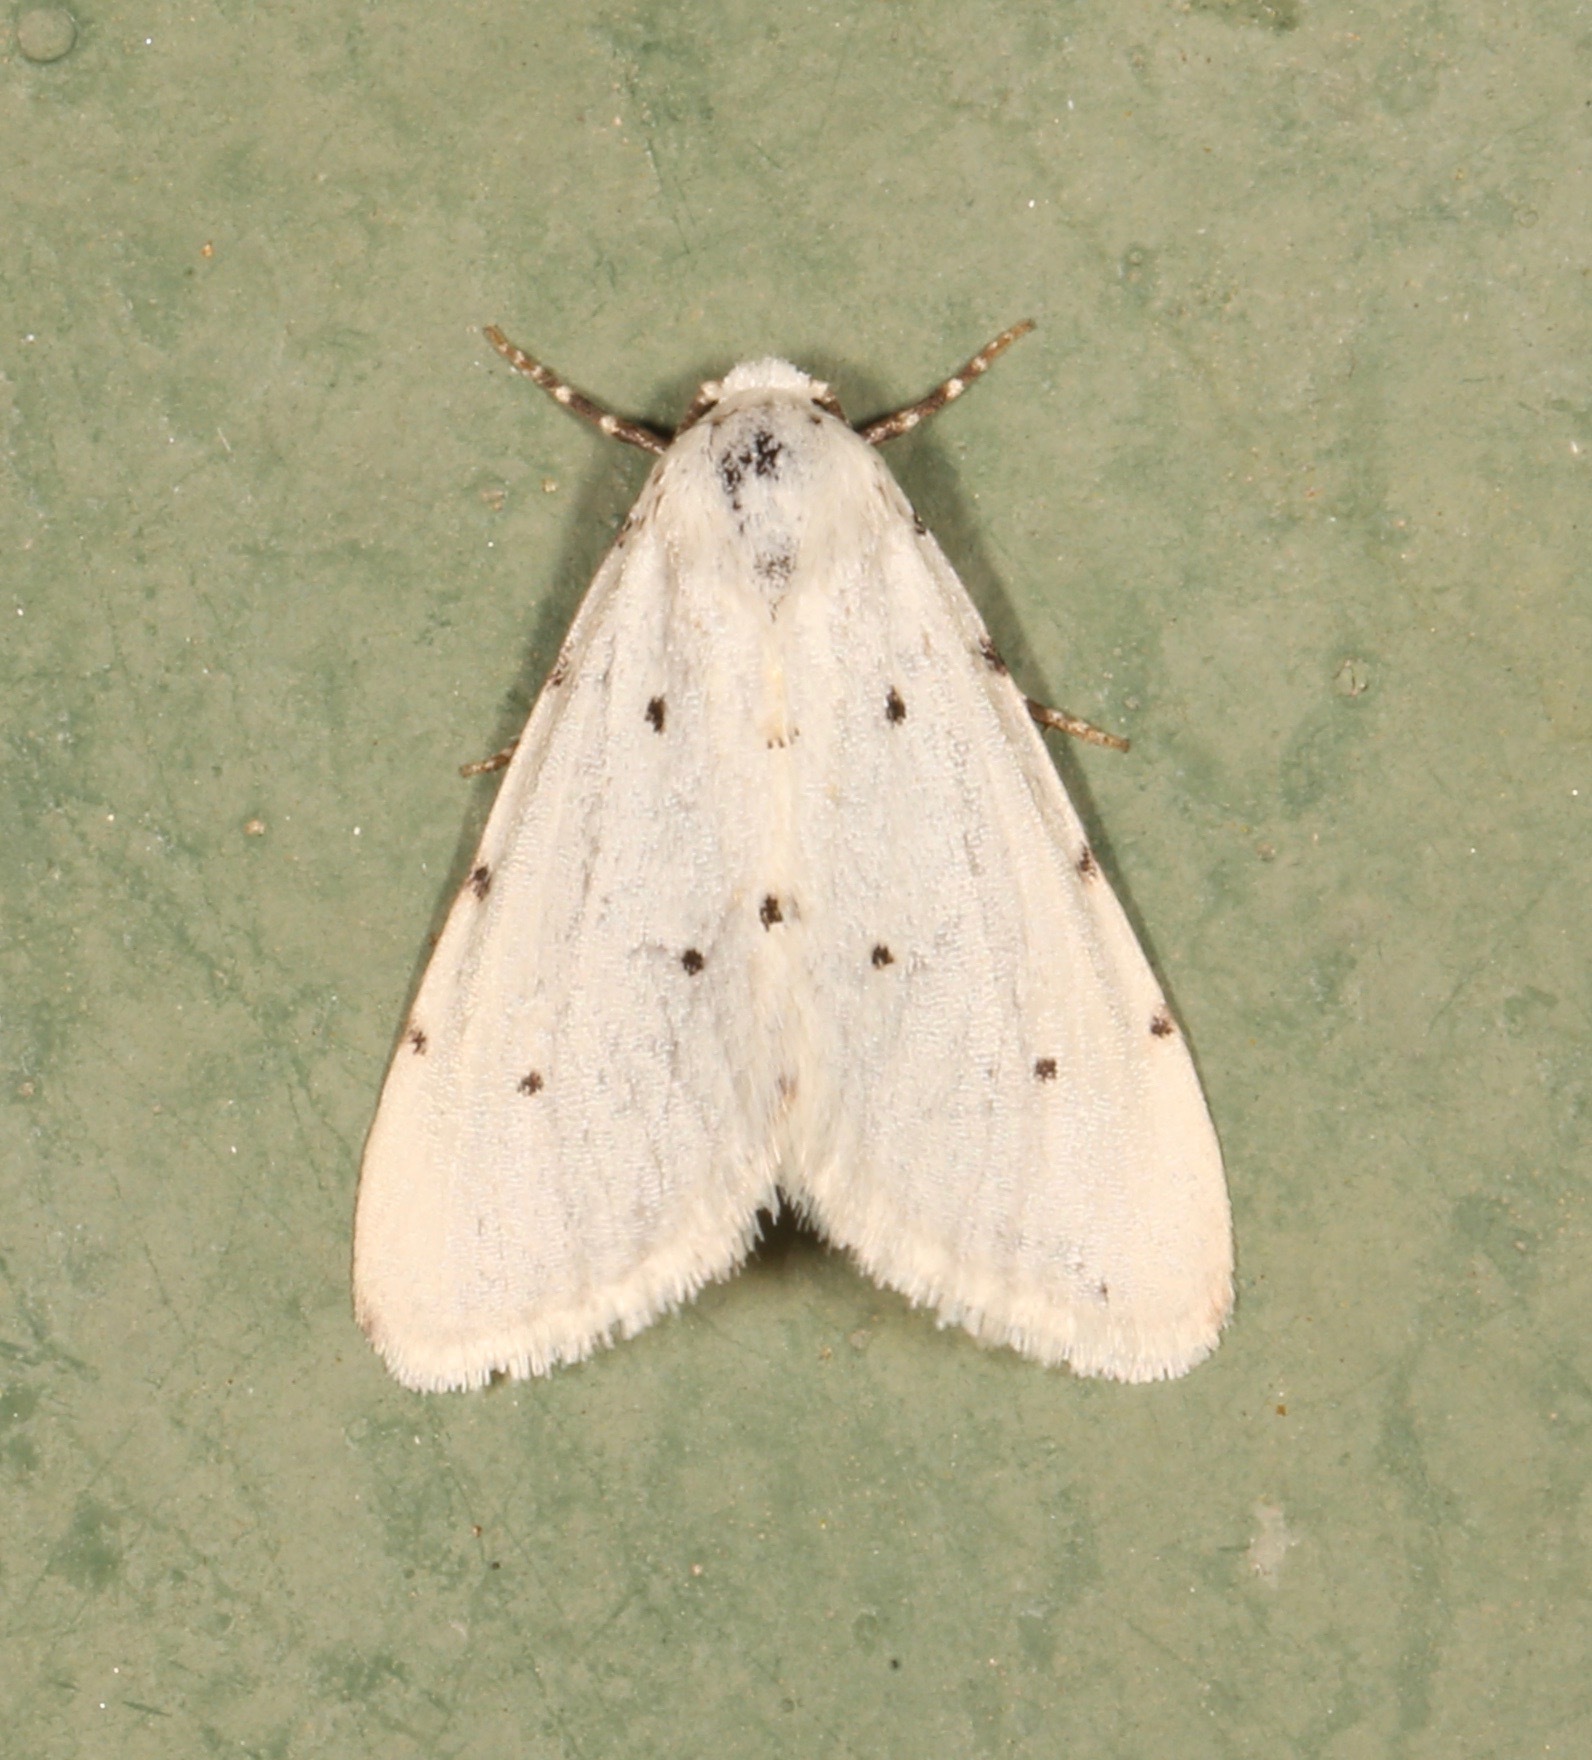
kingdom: Animalia
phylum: Arthropoda
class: Insecta
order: Lepidoptera
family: Noctuidae
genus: Grotellaforma
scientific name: Grotellaforma lactea
